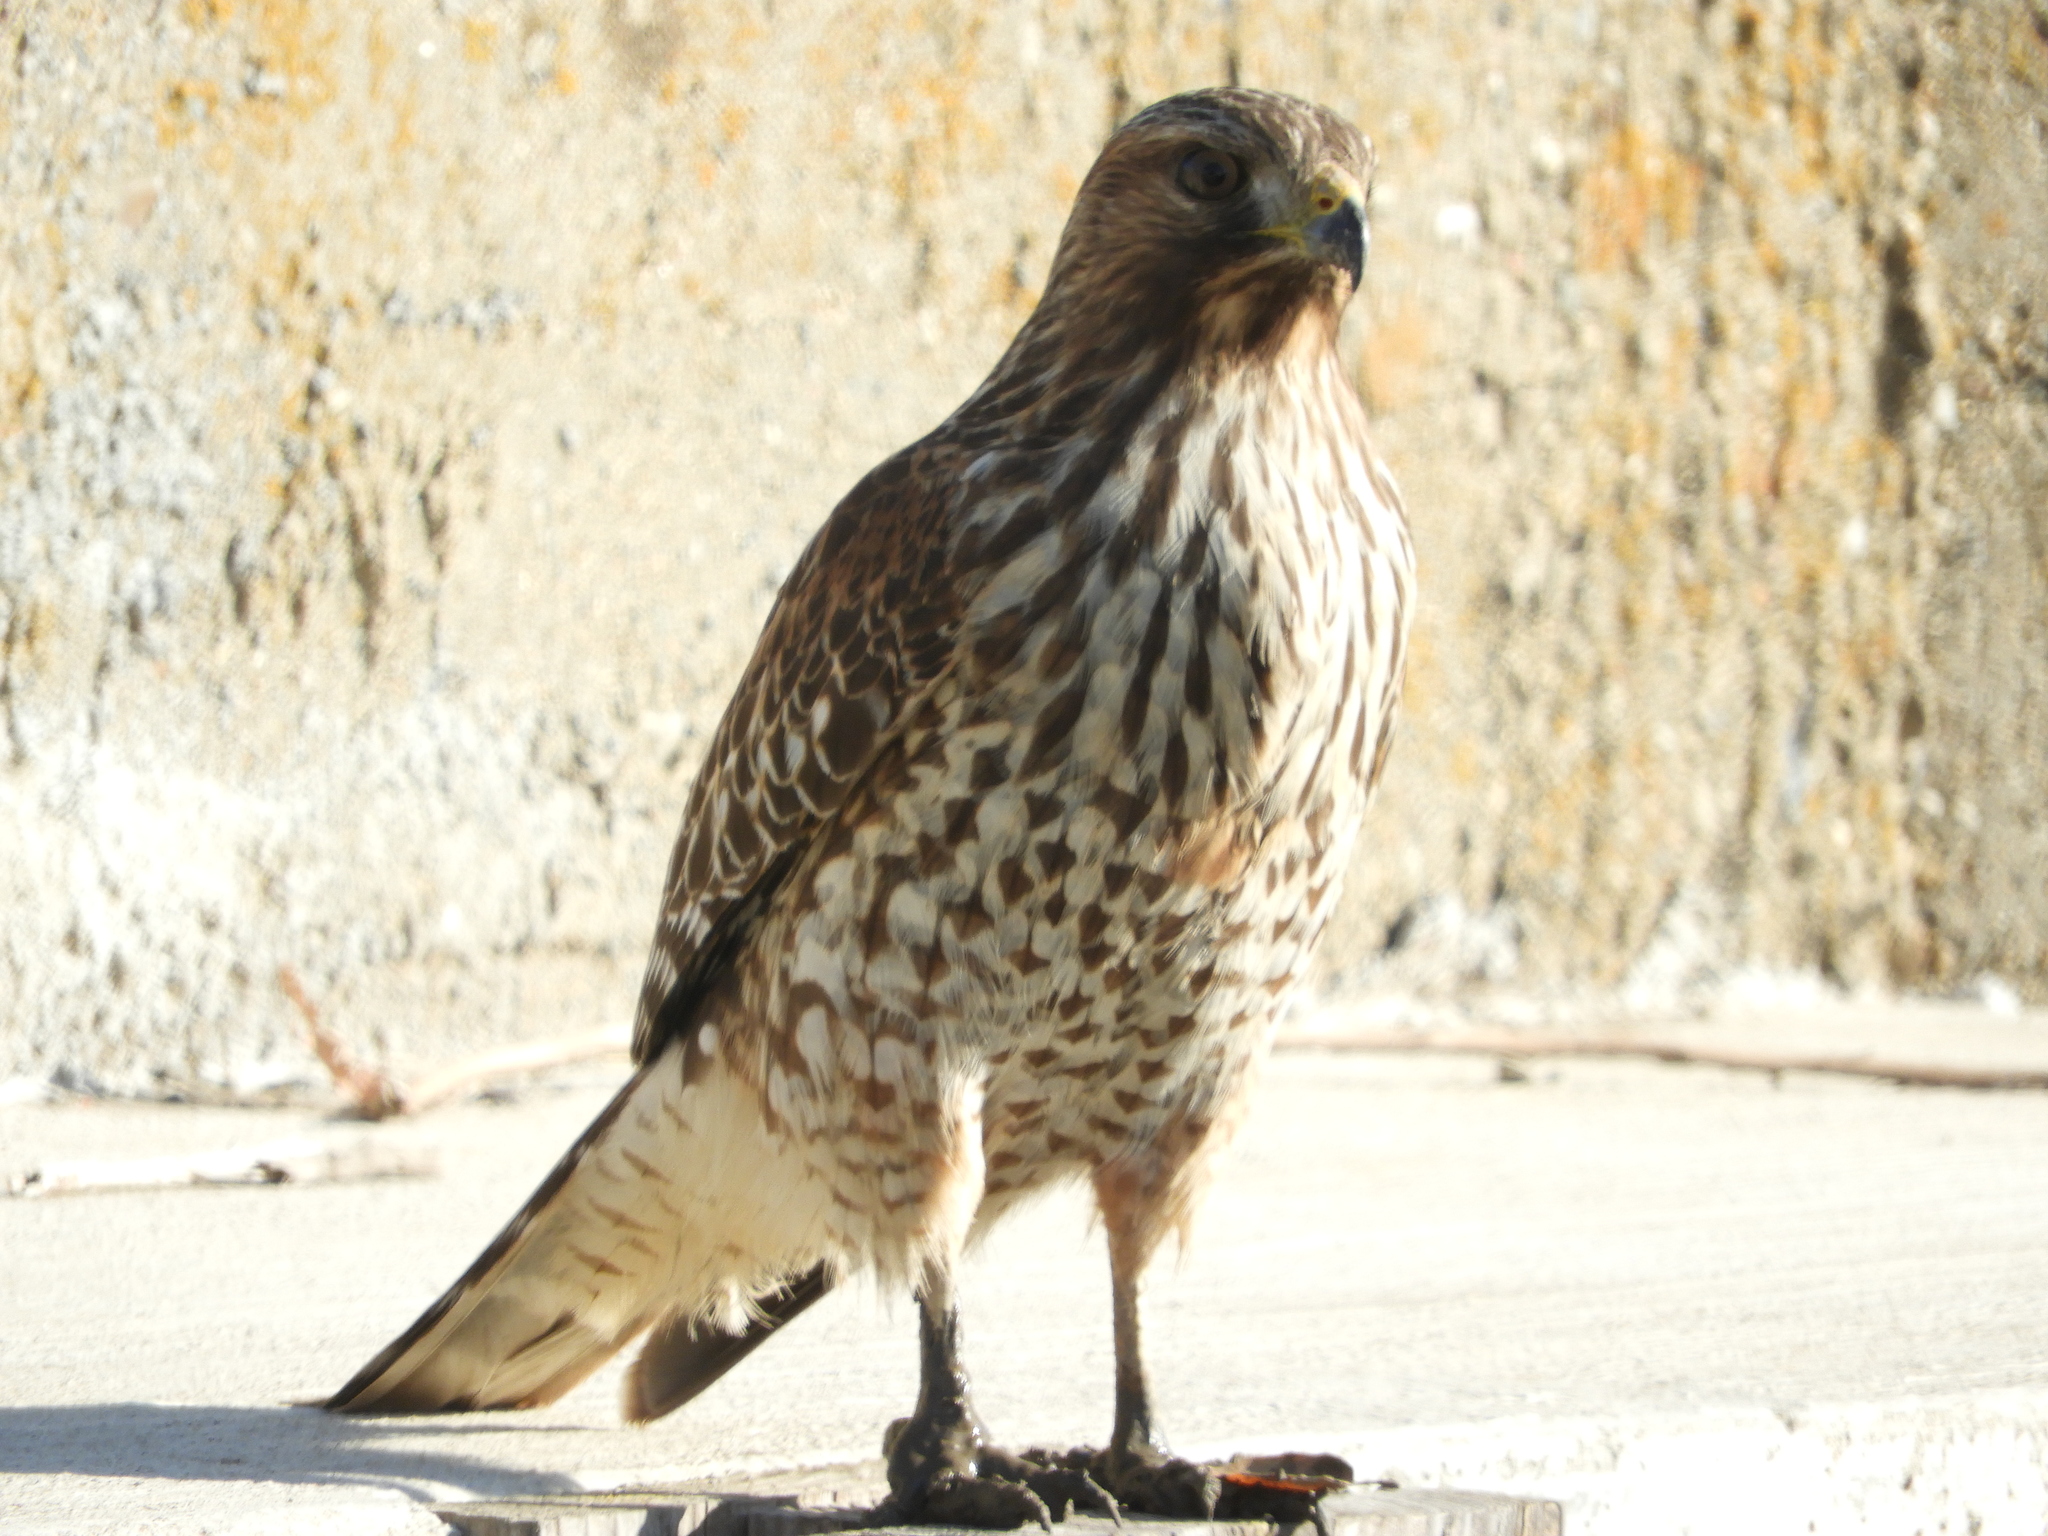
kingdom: Animalia
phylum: Chordata
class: Aves
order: Accipitriformes
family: Accipitridae
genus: Buteo
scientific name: Buteo lineatus
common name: Red-shouldered hawk
